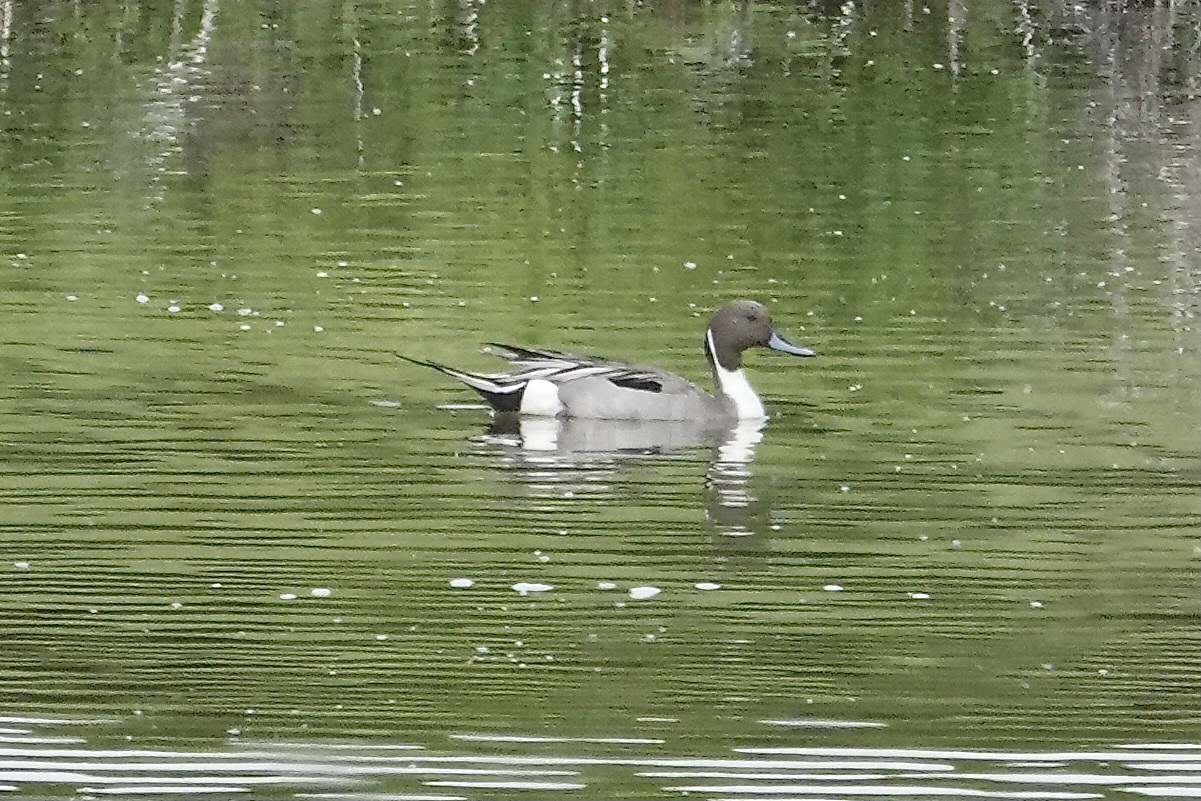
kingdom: Animalia
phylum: Chordata
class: Aves
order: Anseriformes
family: Anatidae
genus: Anas
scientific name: Anas acuta
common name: Northern pintail
